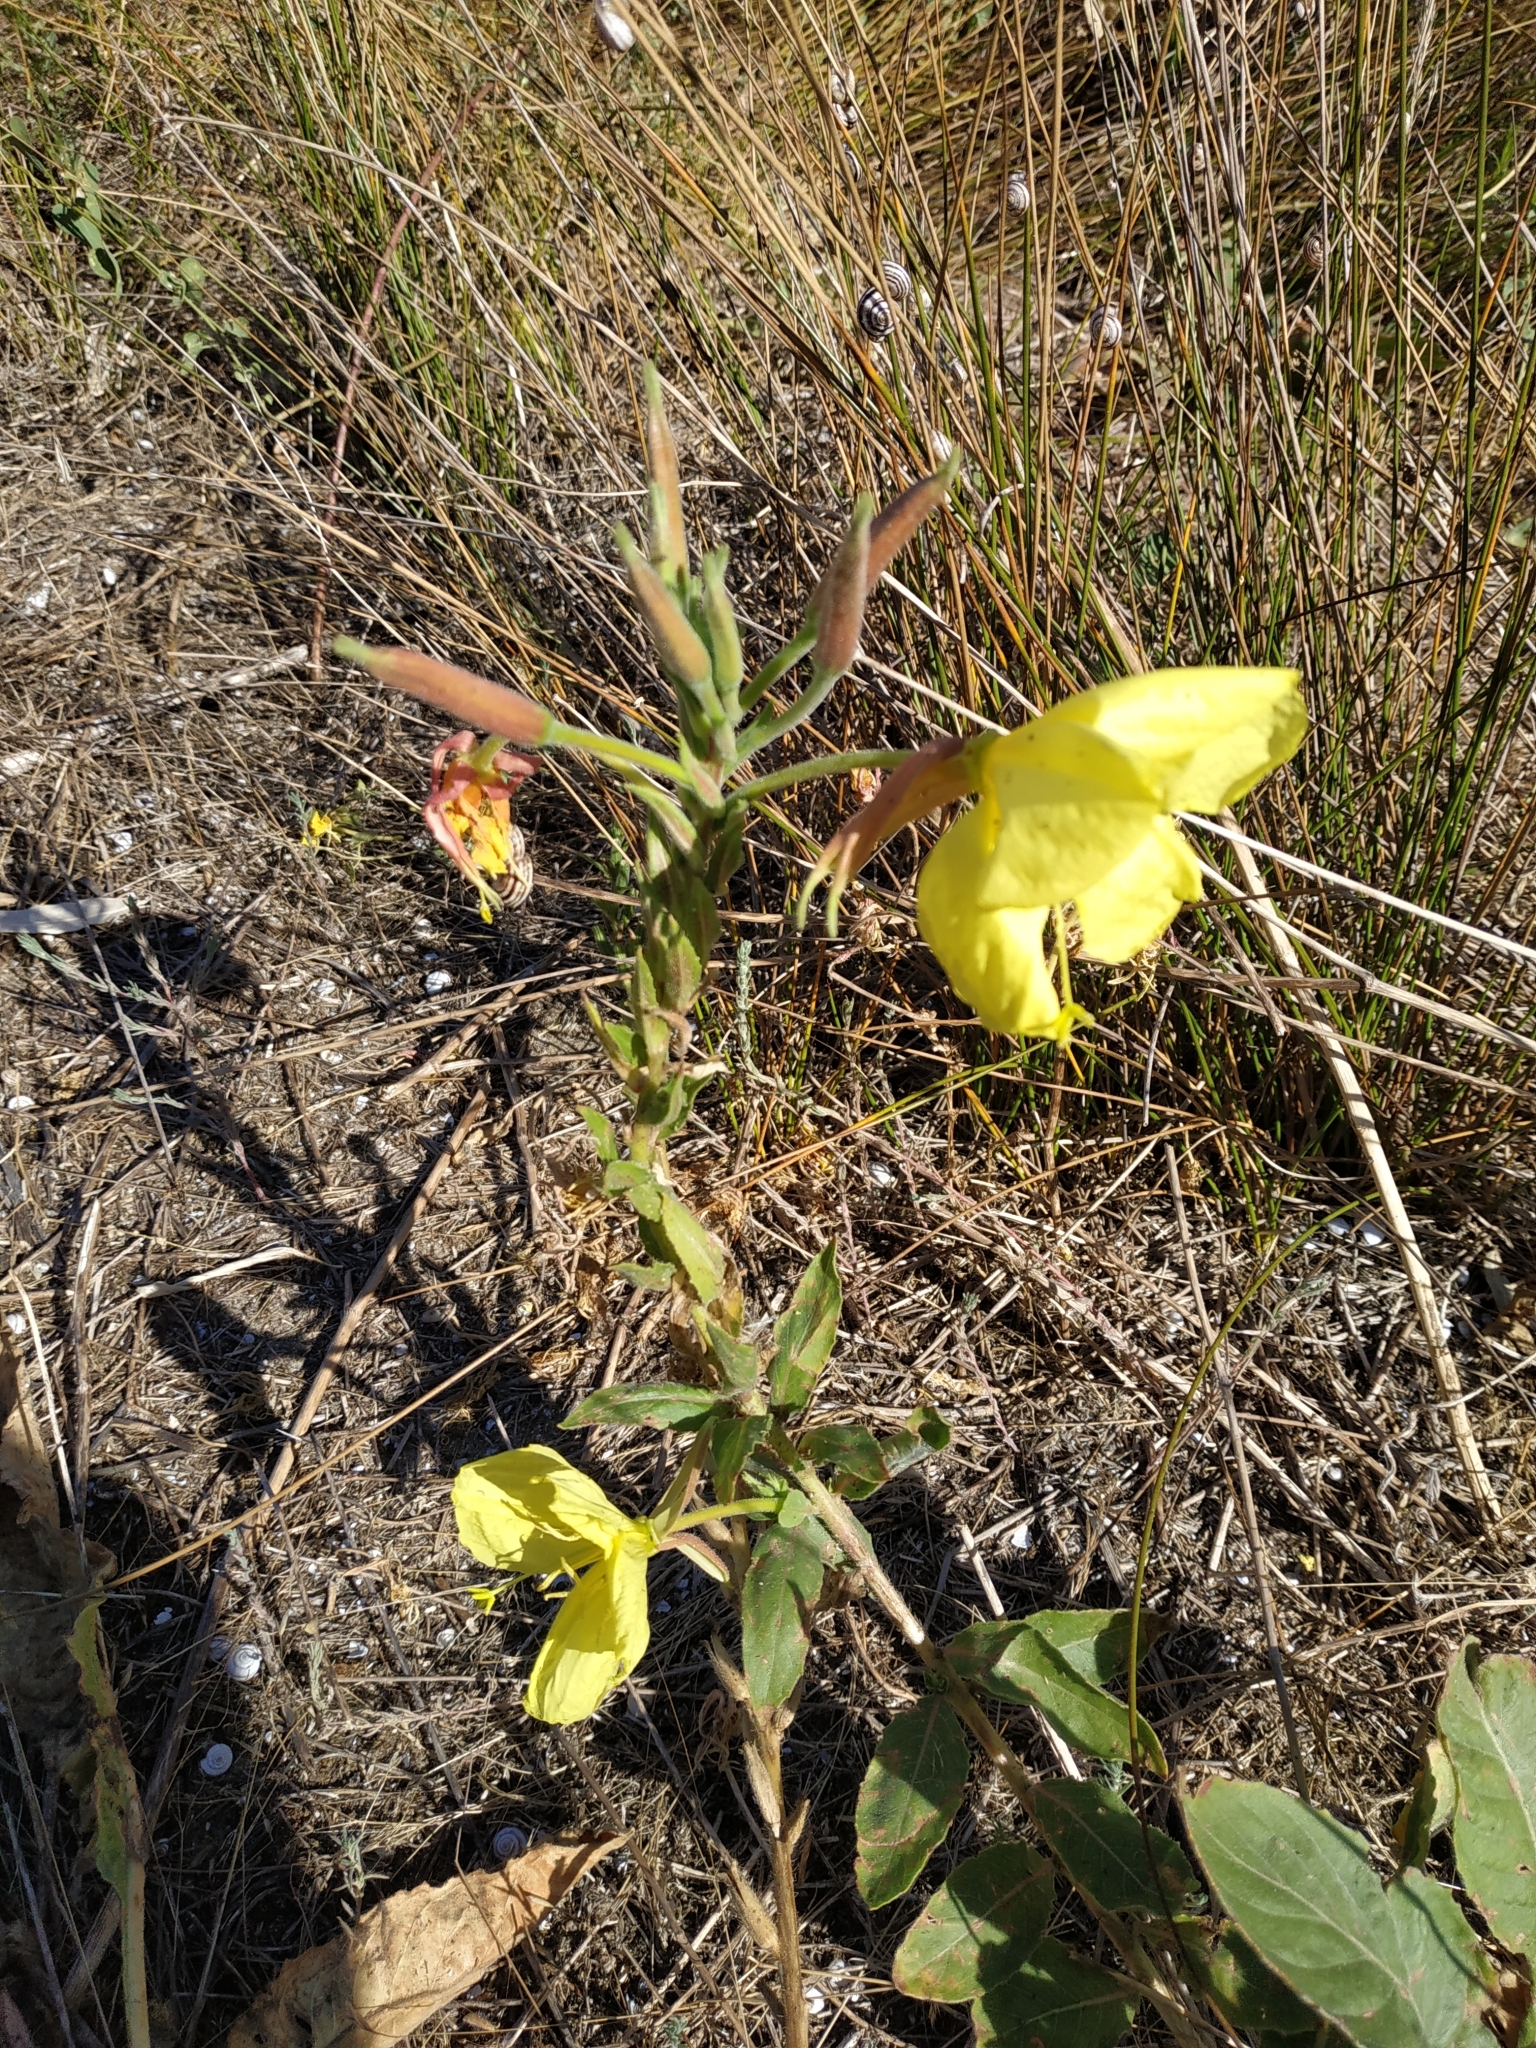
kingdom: Plantae
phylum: Tracheophyta
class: Magnoliopsida
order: Myrtales
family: Onagraceae
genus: Oenothera
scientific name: Oenothera glazioviana
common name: Large-flowered evening-primrose
